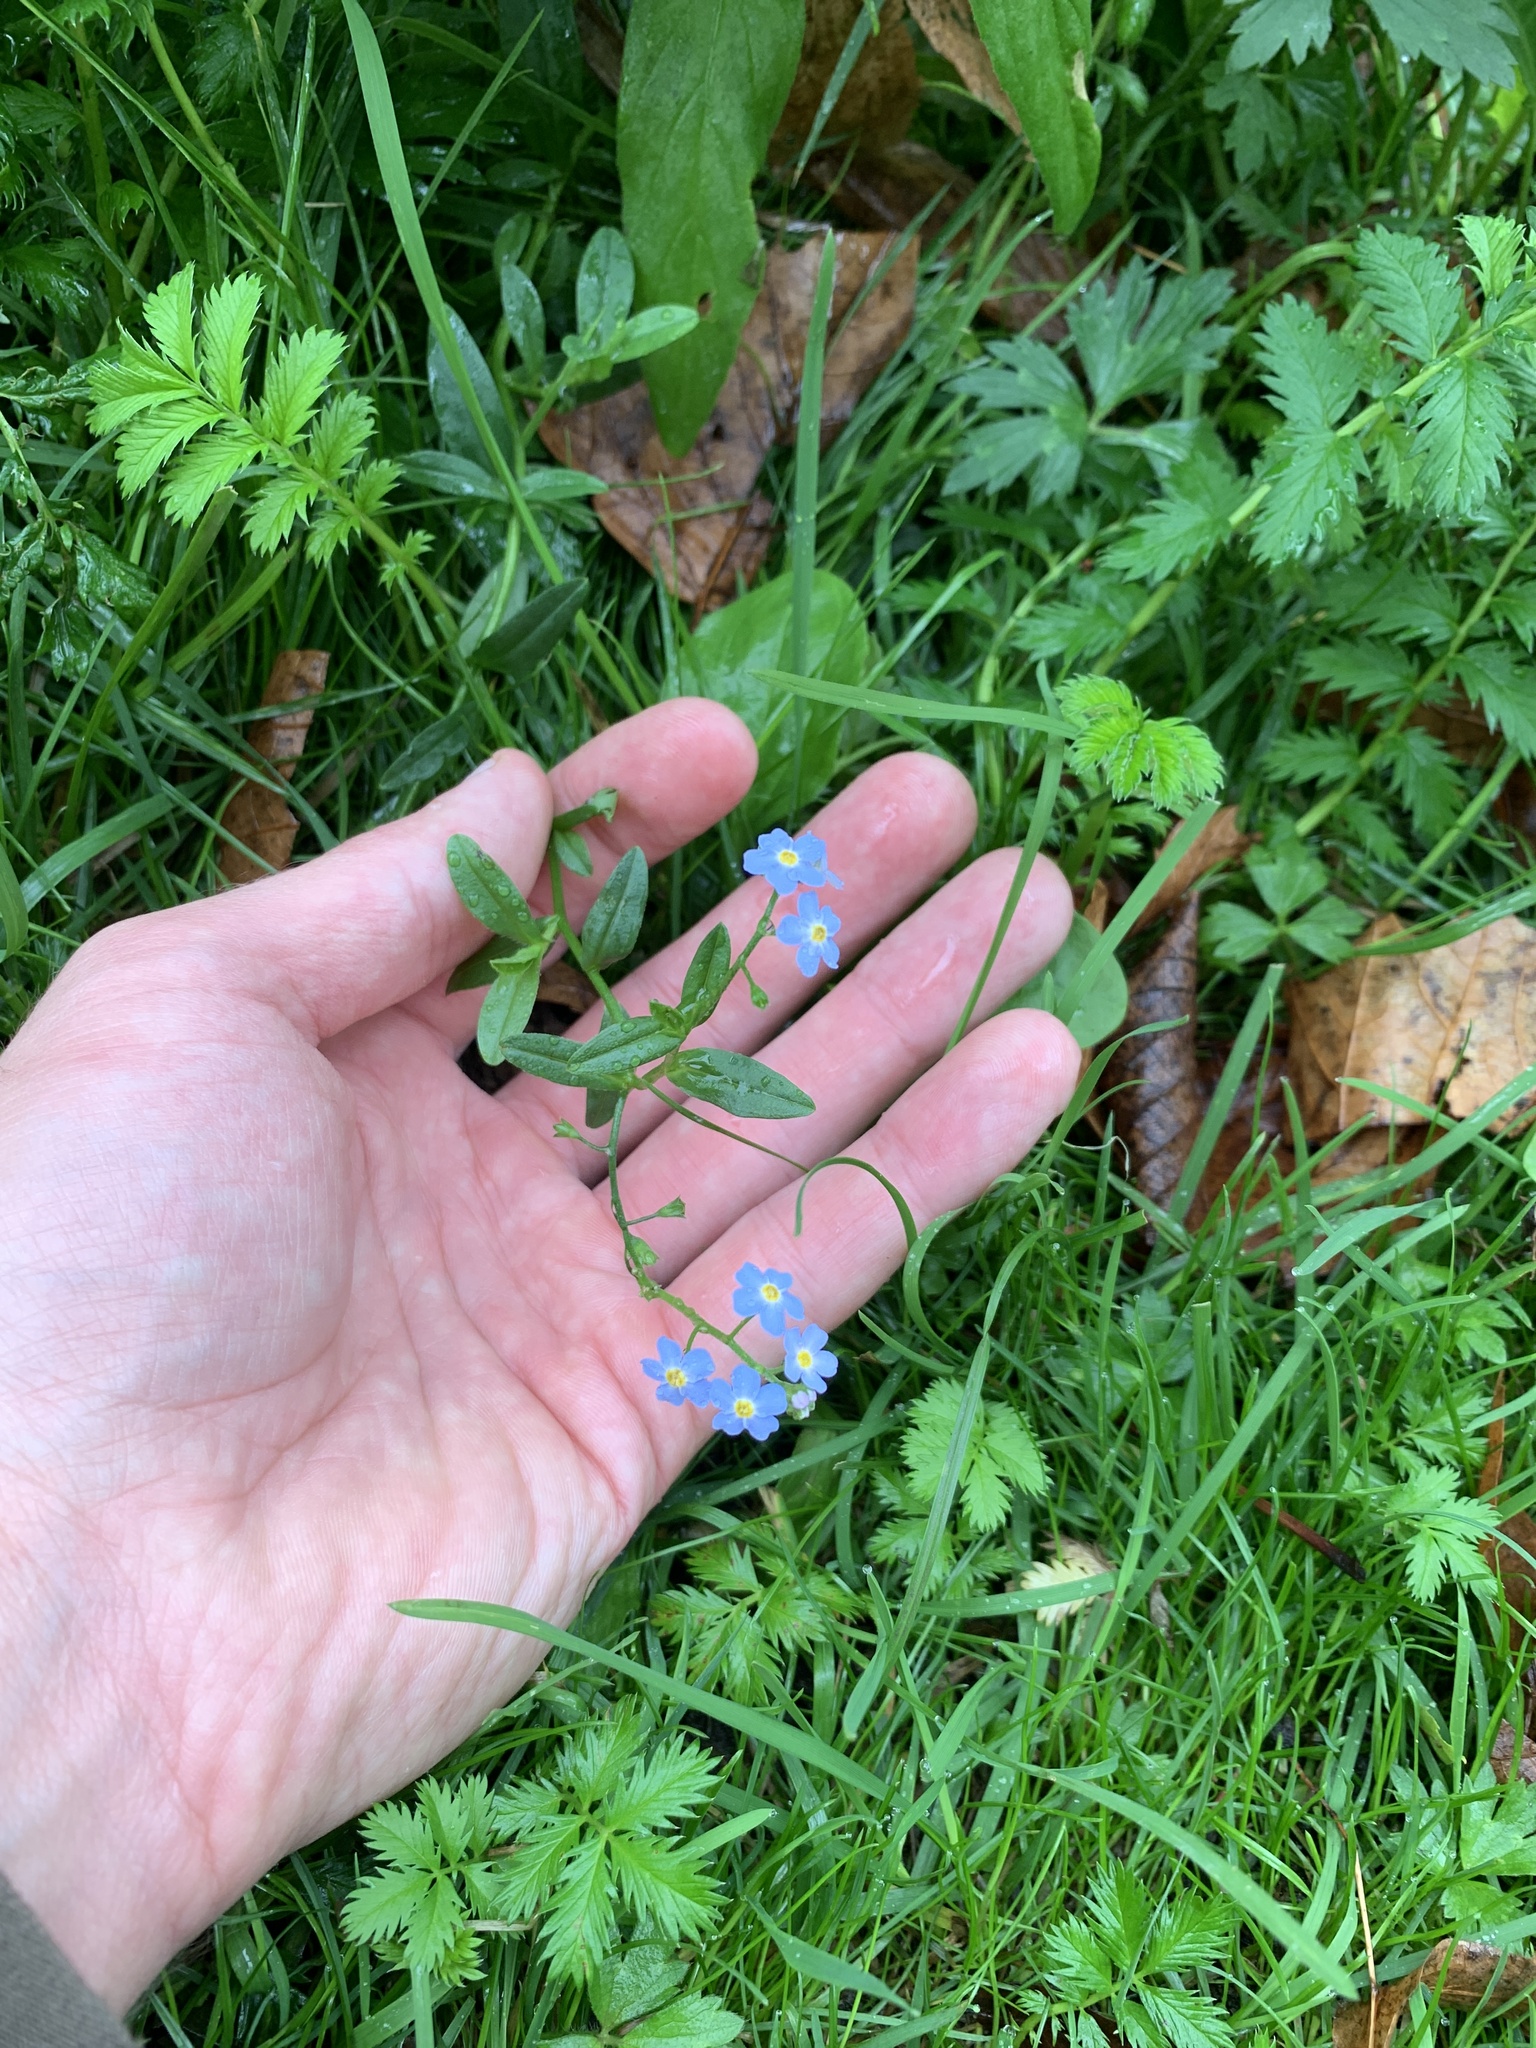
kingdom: Plantae
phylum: Tracheophyta
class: Magnoliopsida
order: Boraginales
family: Boraginaceae
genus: Myosotis
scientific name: Myosotis scorpioides
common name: Water forget-me-not
